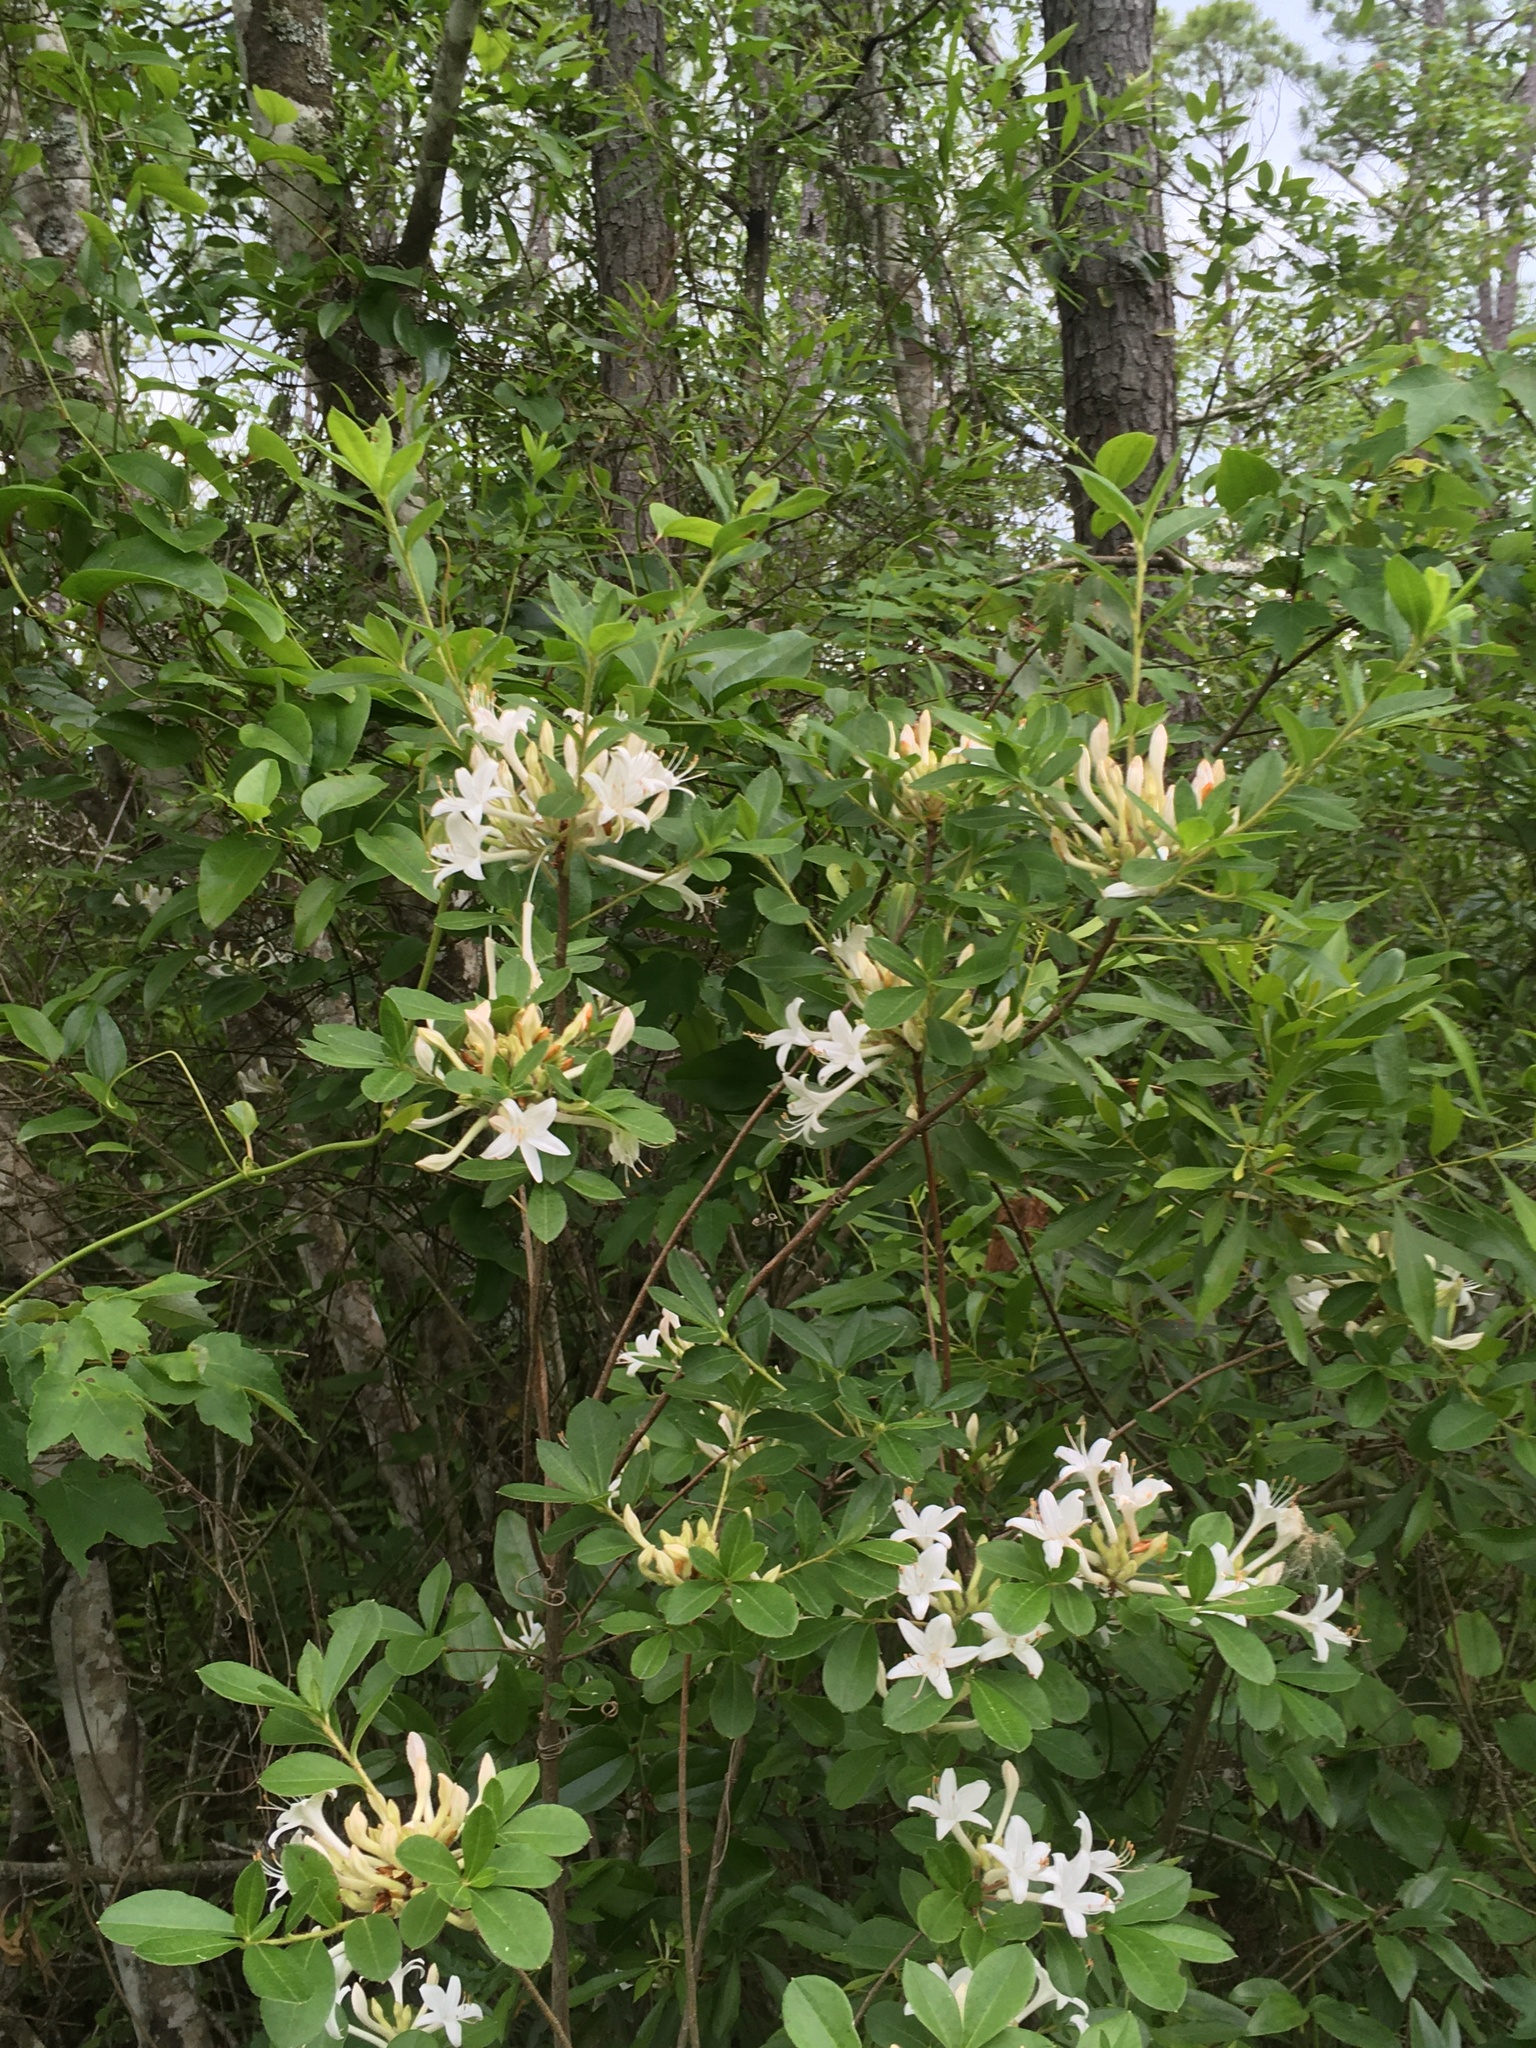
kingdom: Plantae
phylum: Tracheophyta
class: Magnoliopsida
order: Ericales
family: Ericaceae
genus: Rhododendron
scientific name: Rhododendron viscosum
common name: Clammy azalea
